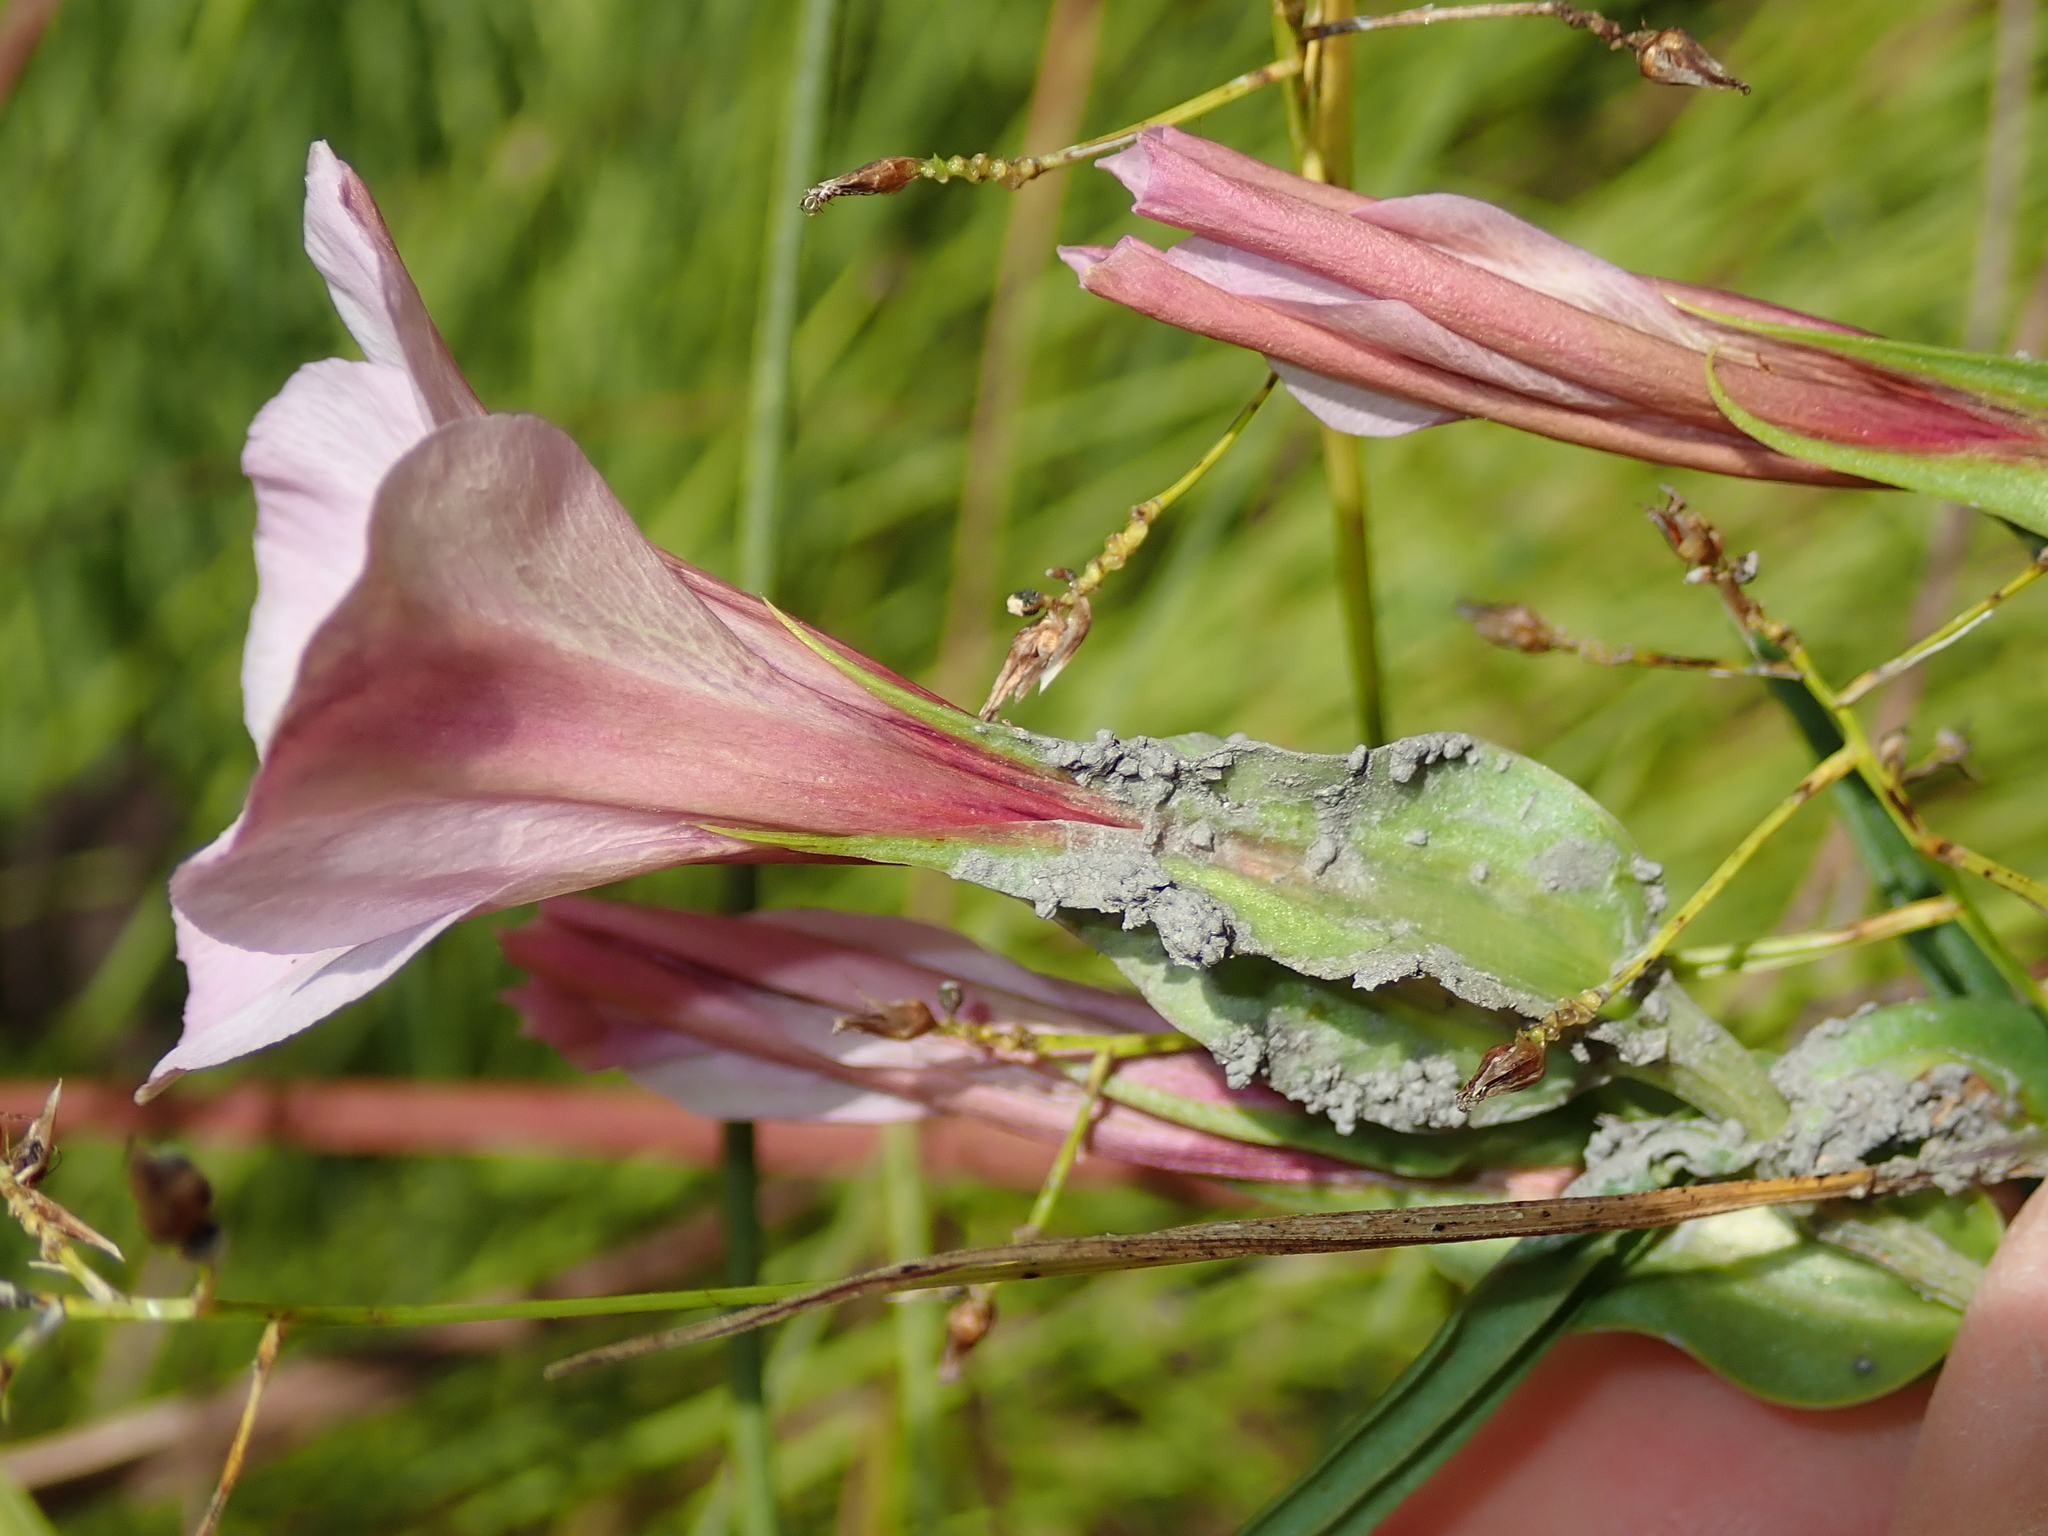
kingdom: Plantae
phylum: Tracheophyta
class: Magnoliopsida
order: Gentianales
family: Gentianaceae
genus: Schultesia
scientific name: Schultesia brachyptera
